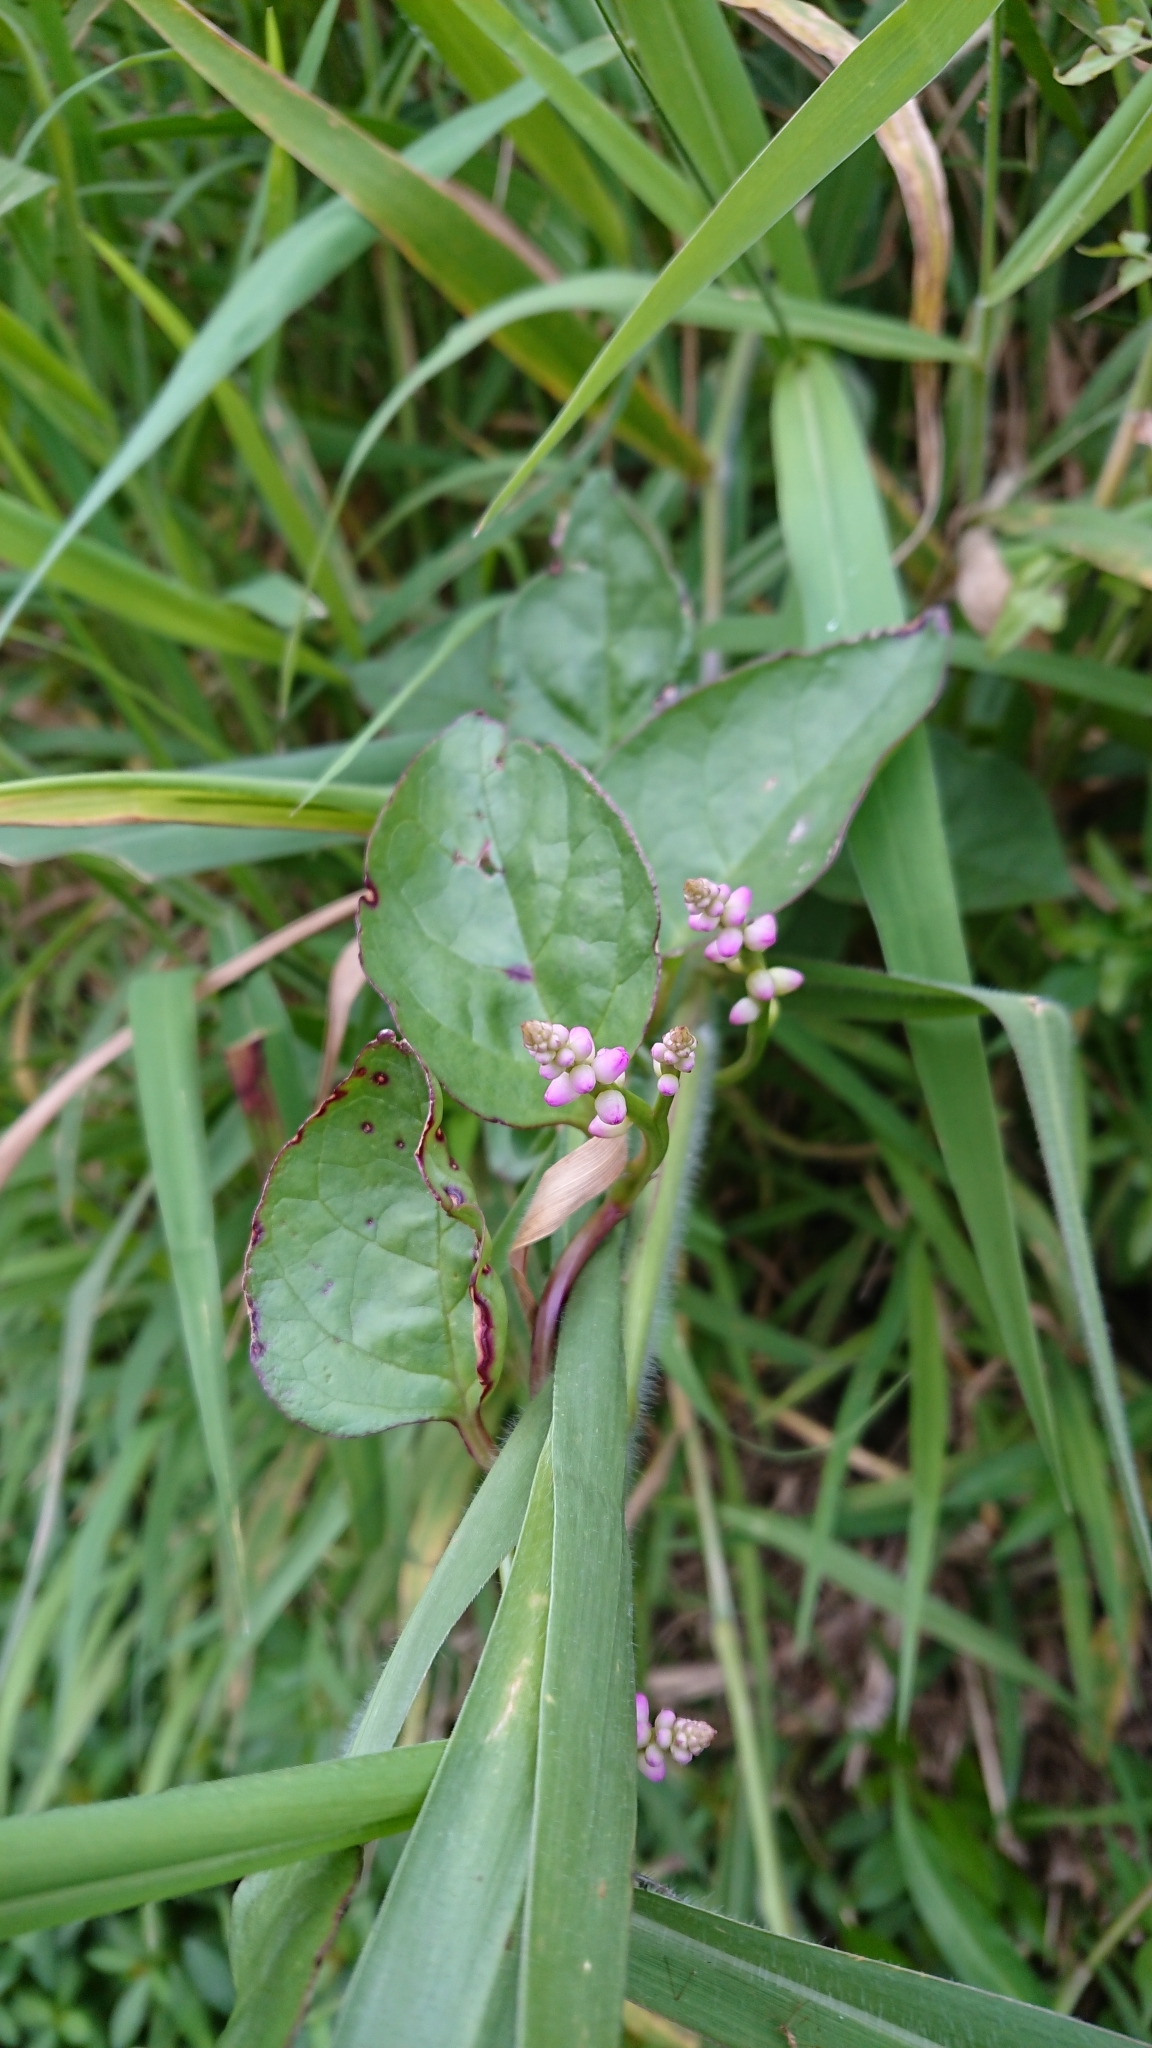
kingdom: Plantae
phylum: Tracheophyta
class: Magnoliopsida
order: Caryophyllales
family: Basellaceae
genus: Basella
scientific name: Basella alba
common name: Indian spinach
